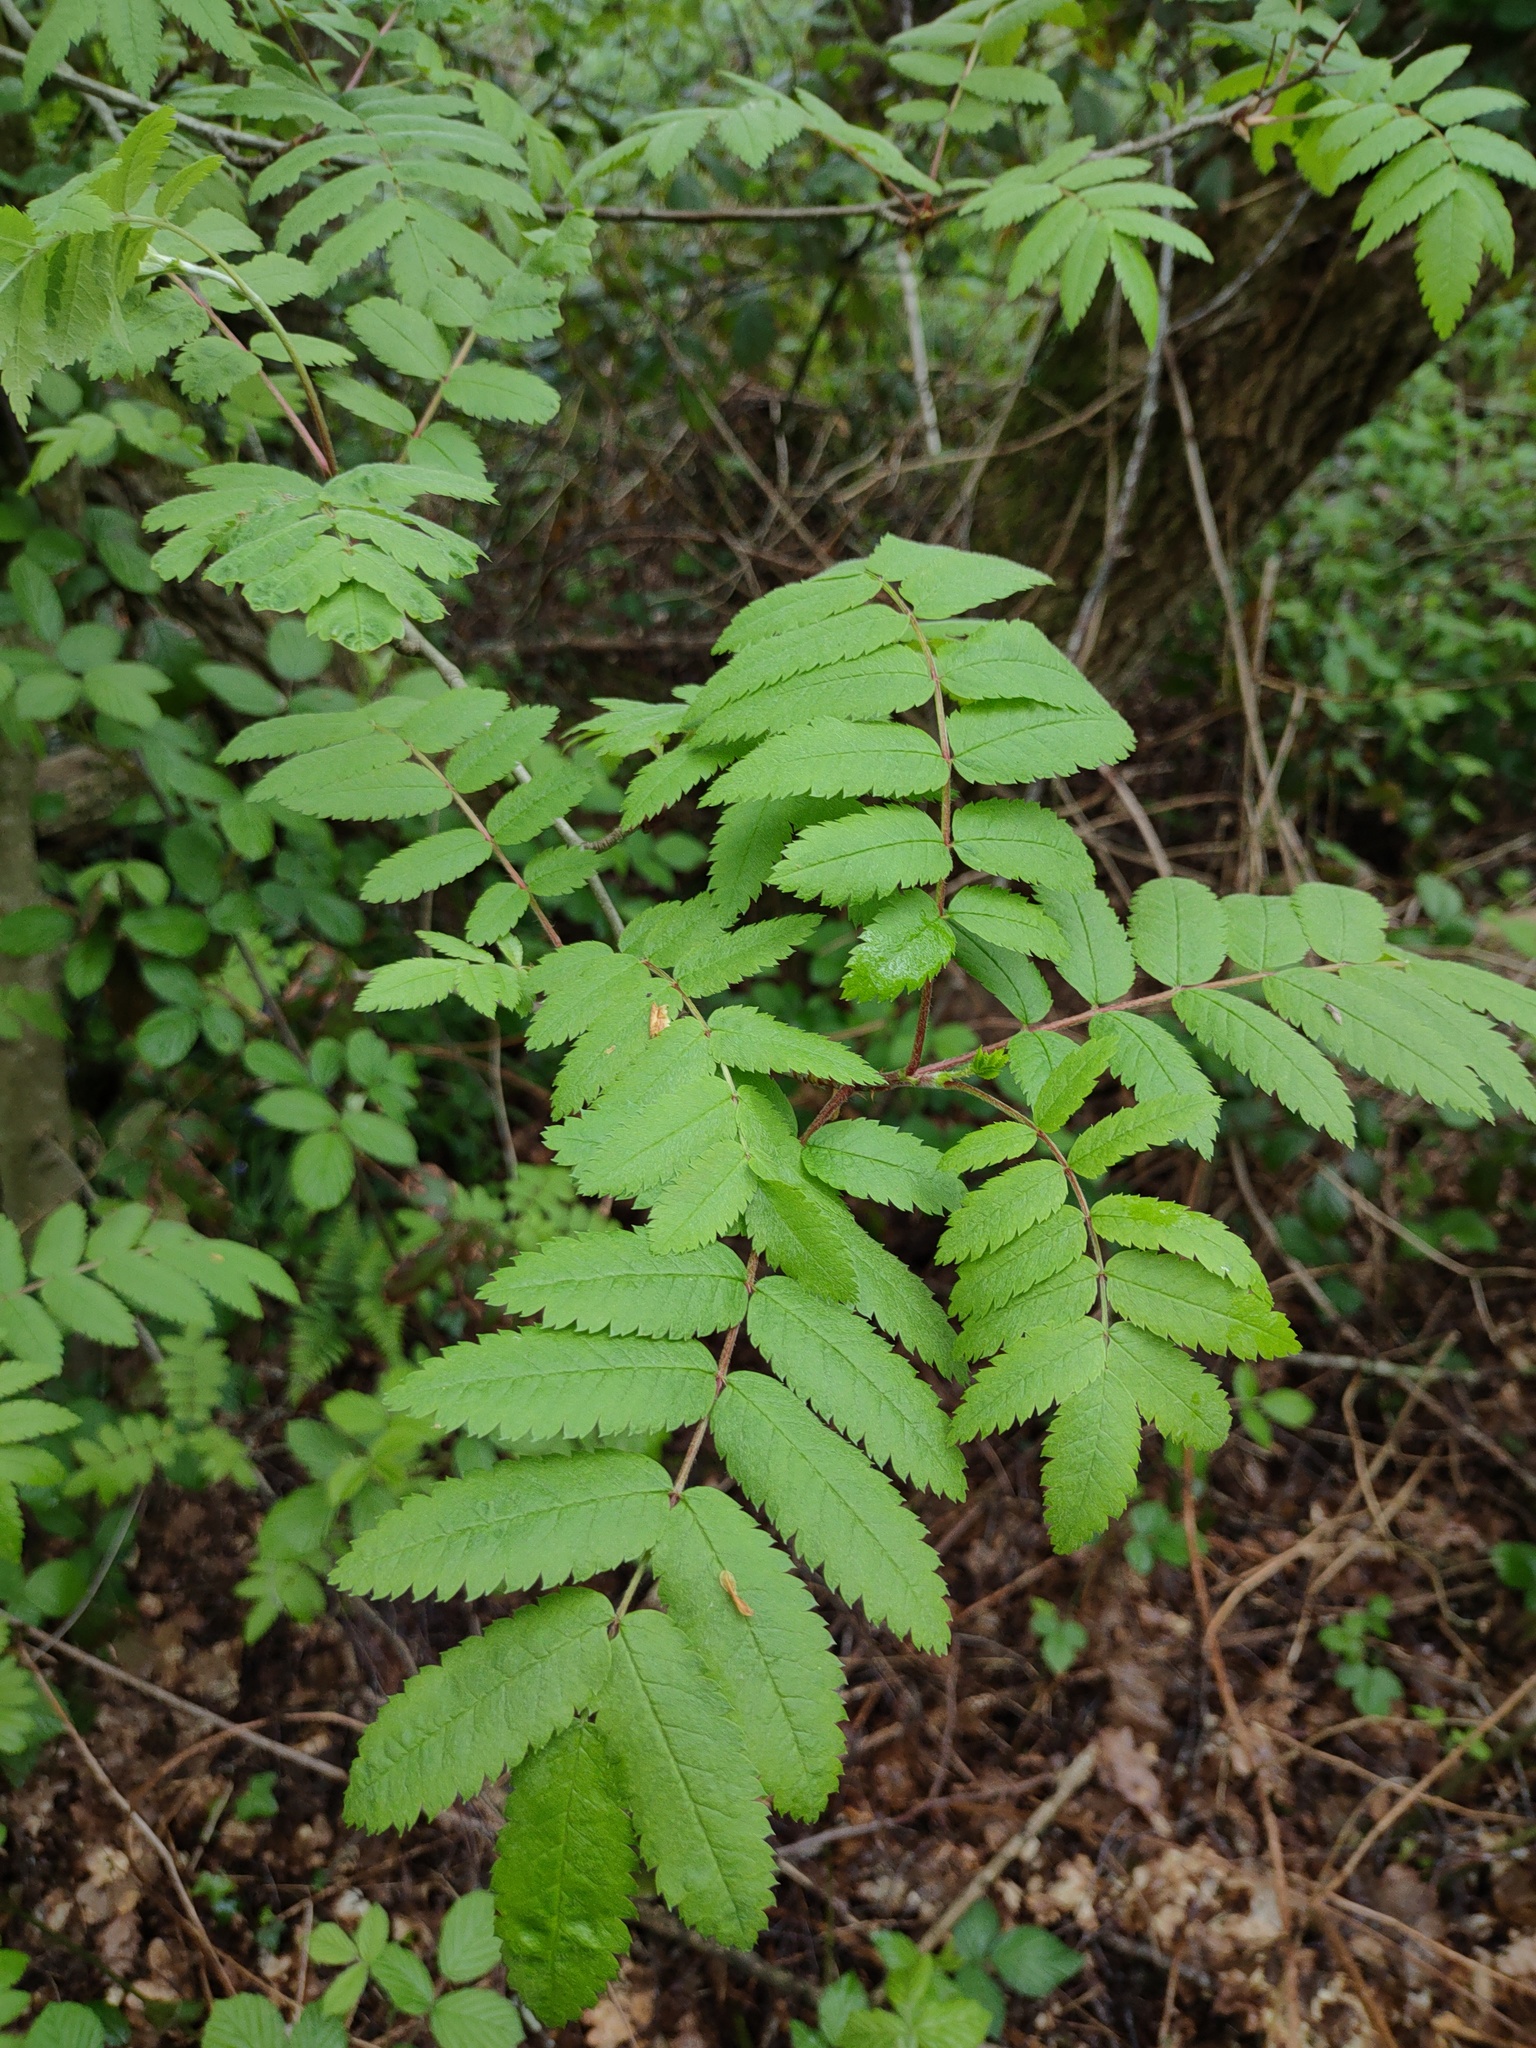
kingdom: Plantae
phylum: Tracheophyta
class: Magnoliopsida
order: Rosales
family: Rosaceae
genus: Sorbus
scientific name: Sorbus aucuparia
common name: Rowan
